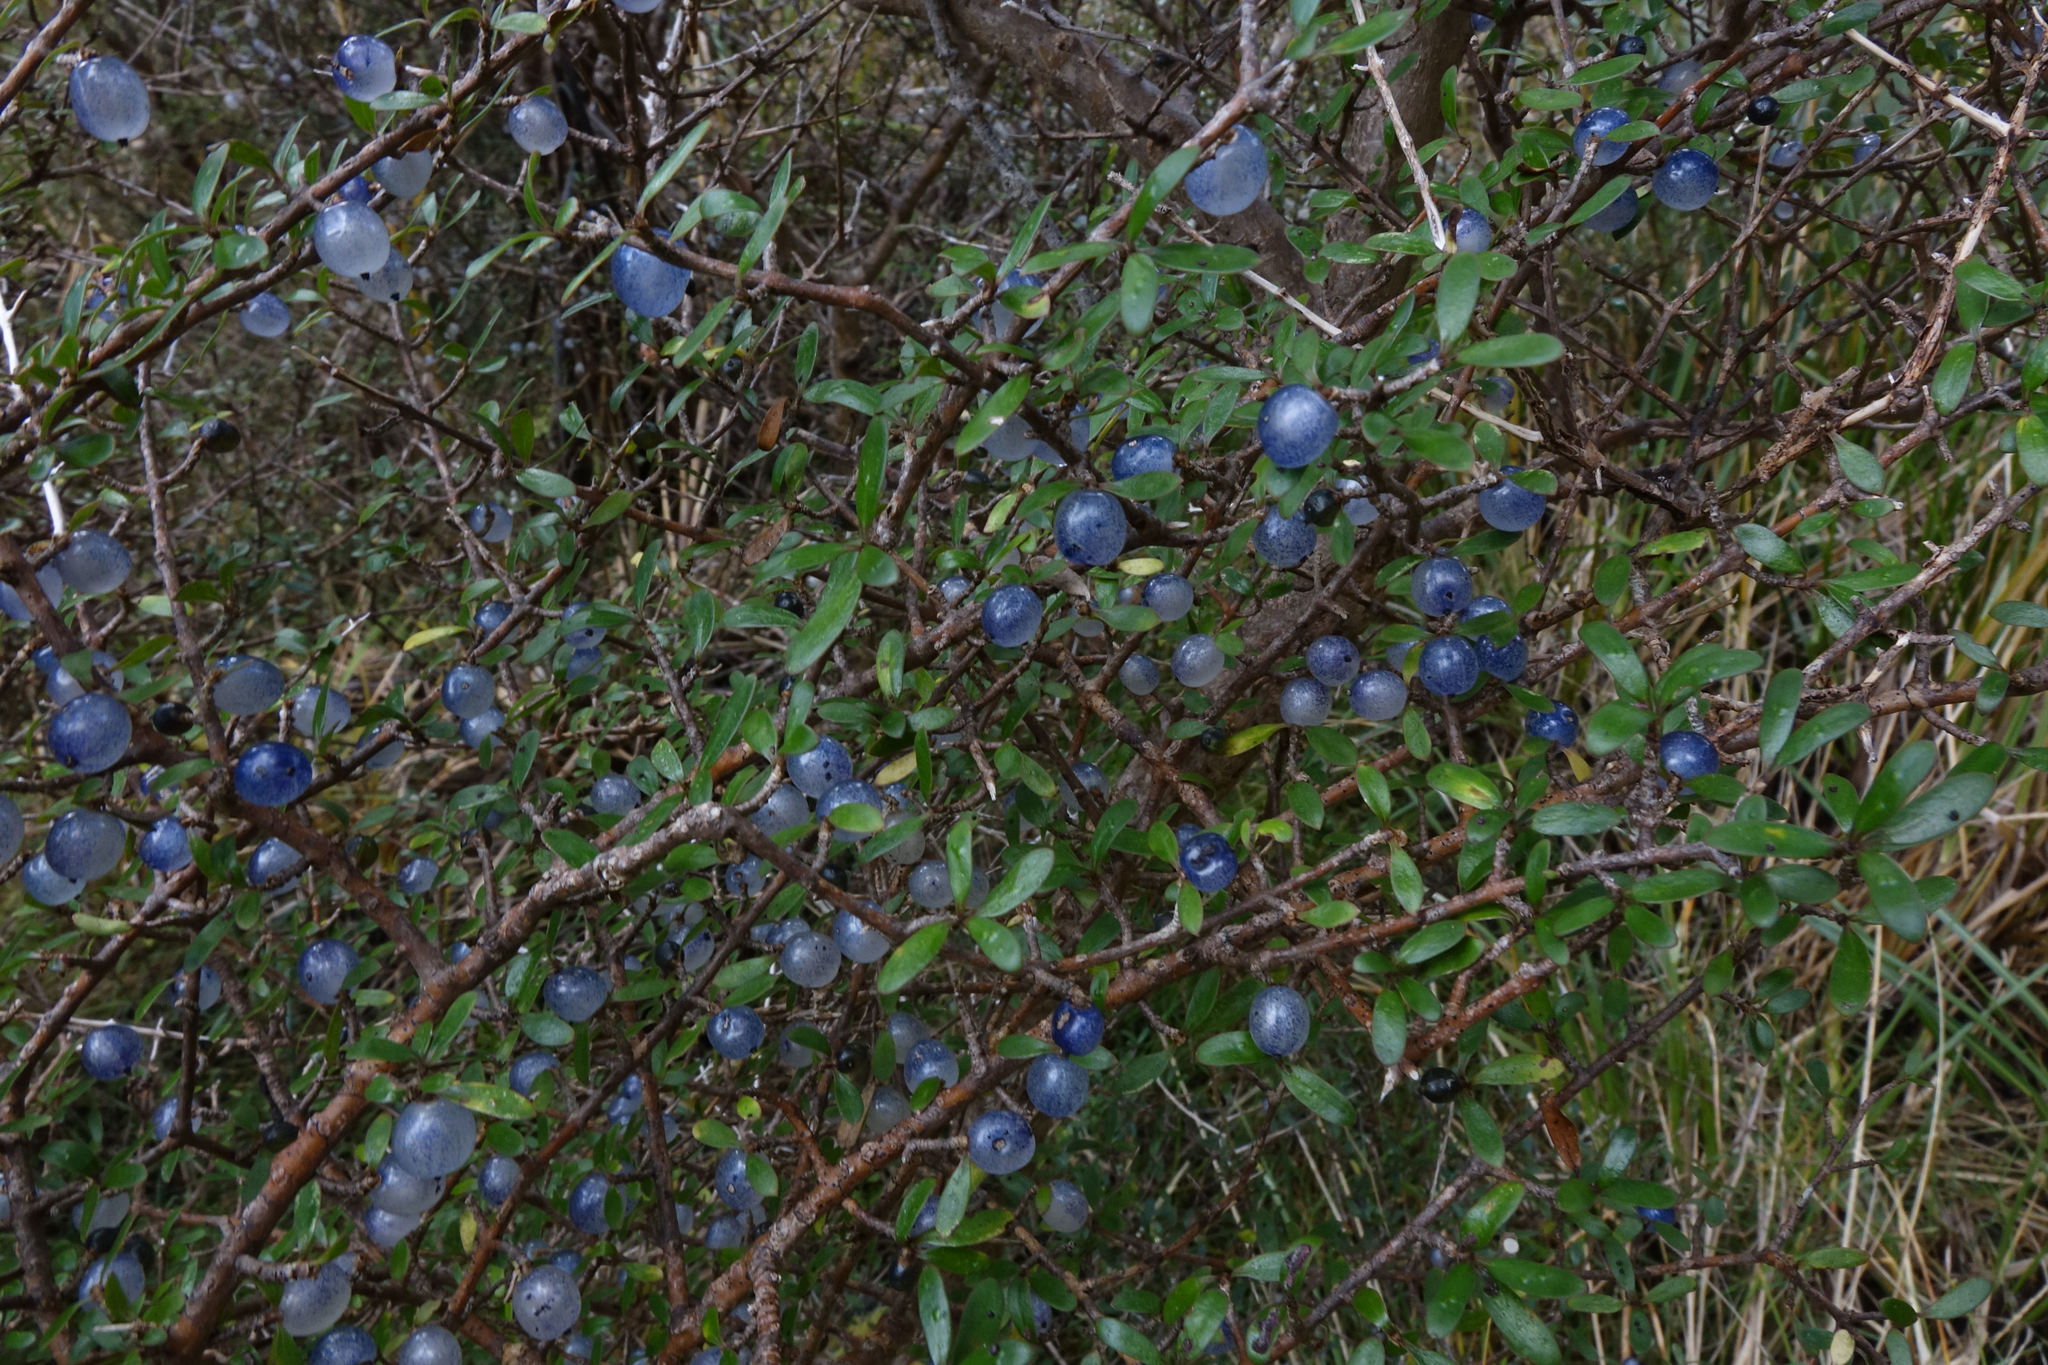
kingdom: Plantae
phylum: Tracheophyta
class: Magnoliopsida
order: Gentianales
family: Rubiaceae
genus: Coprosma
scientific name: Coprosma propinqua
